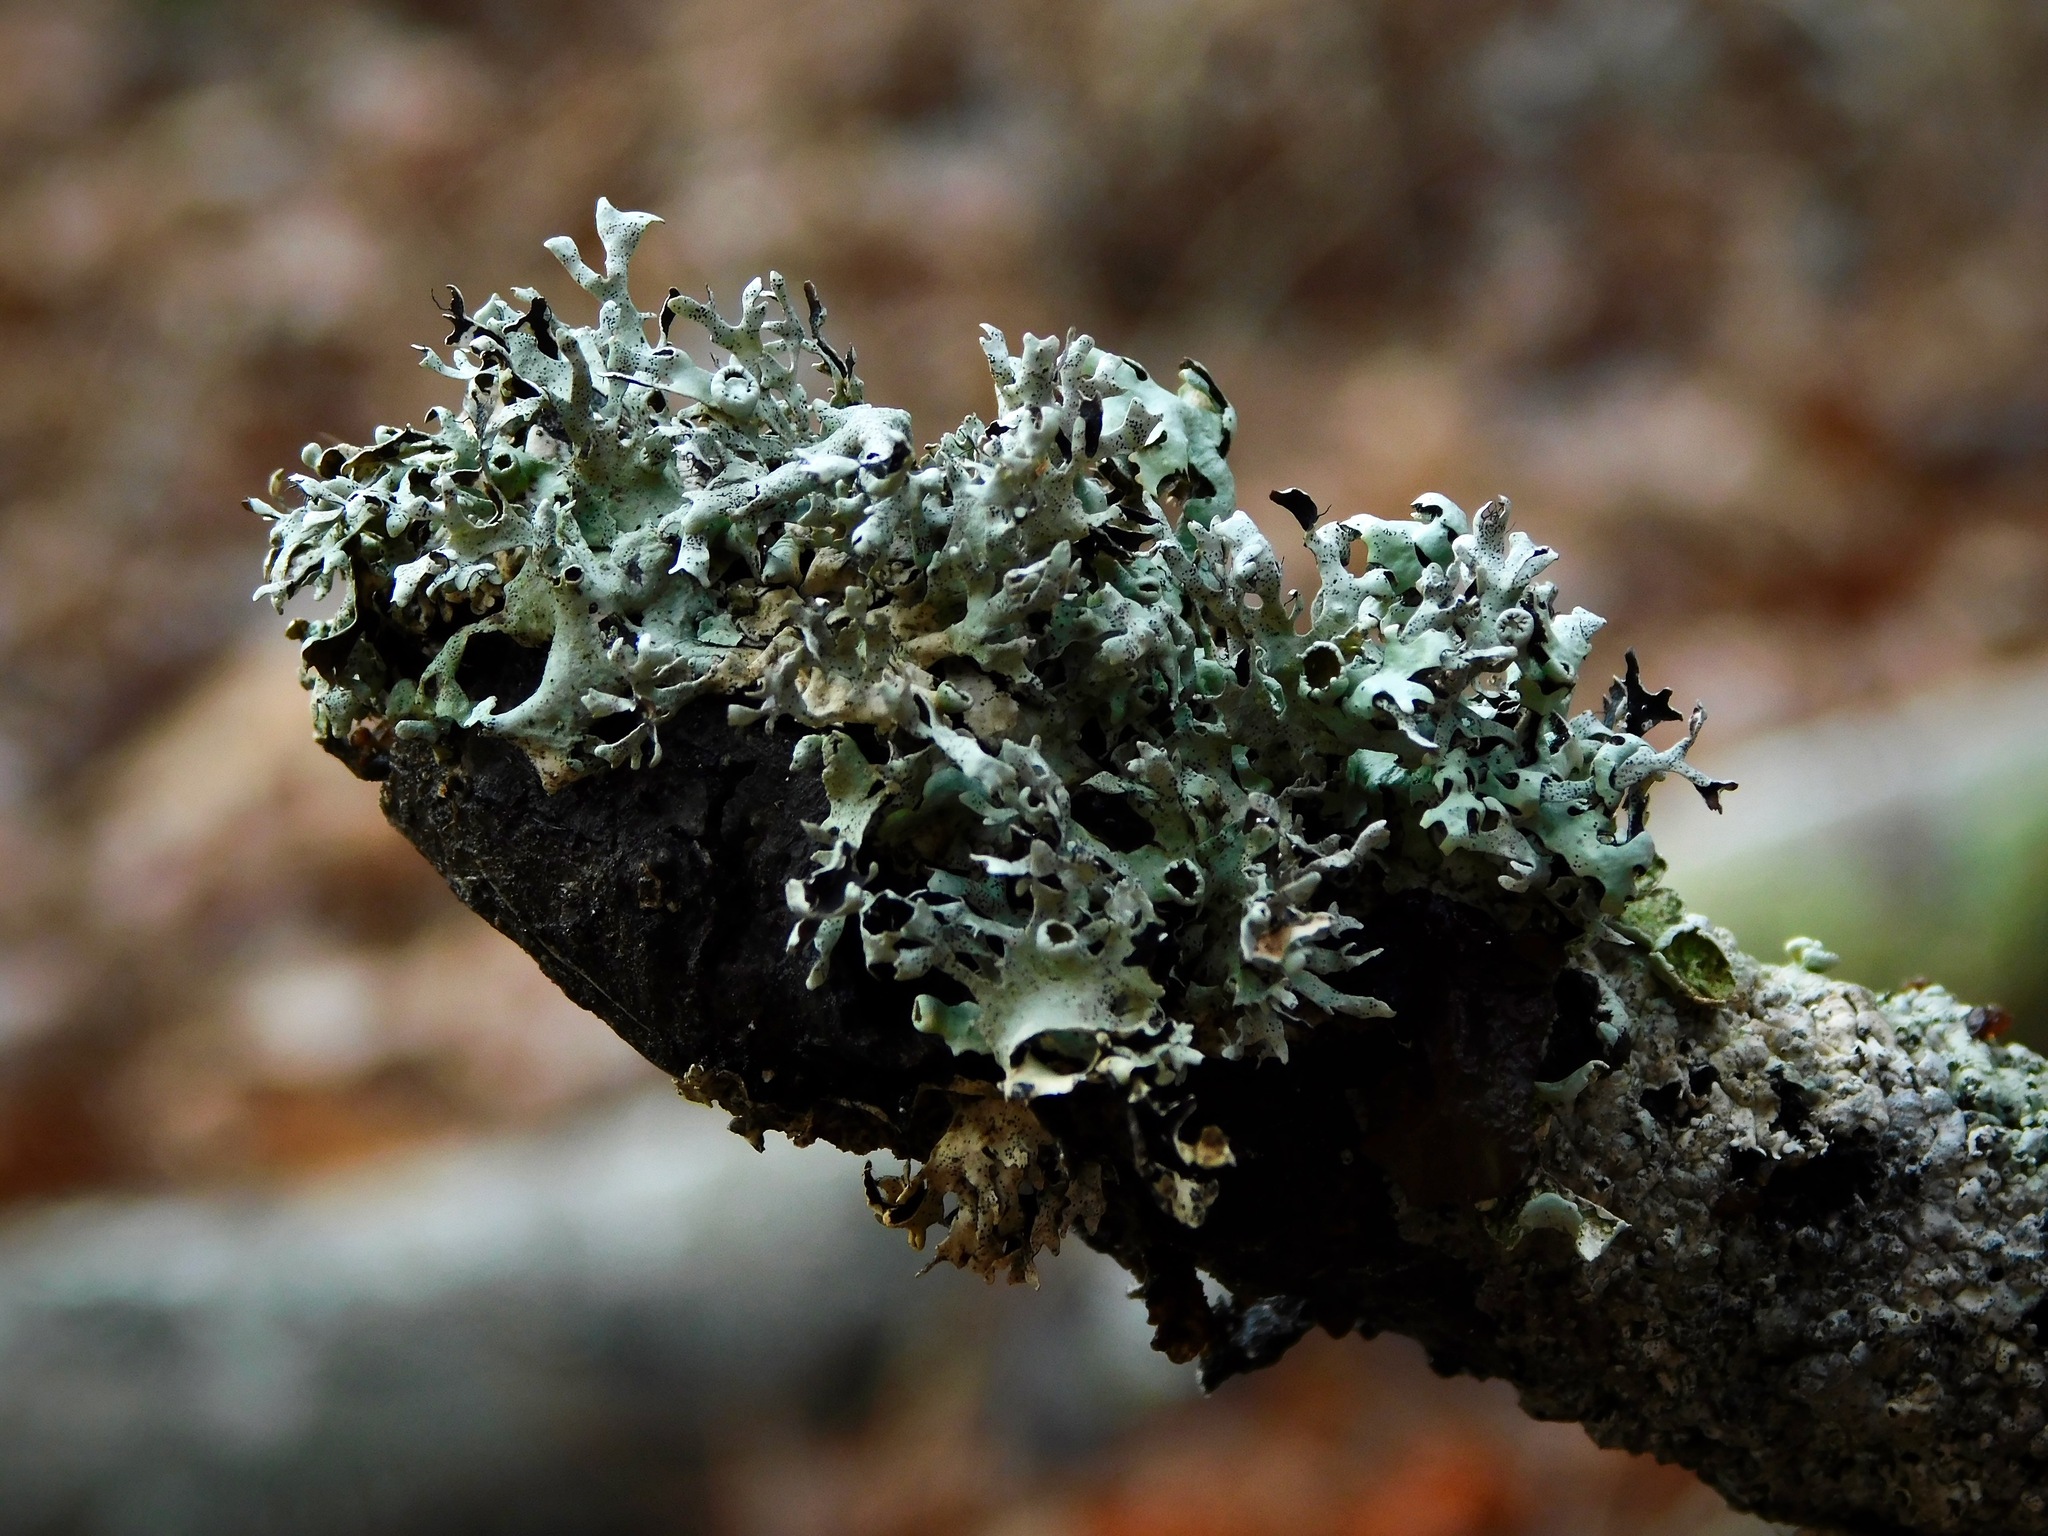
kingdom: Fungi
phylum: Ascomycota
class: Lecanoromycetes
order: Lecanorales
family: Parmeliaceae
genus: Parmotrema
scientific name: Parmotrema cetratum
